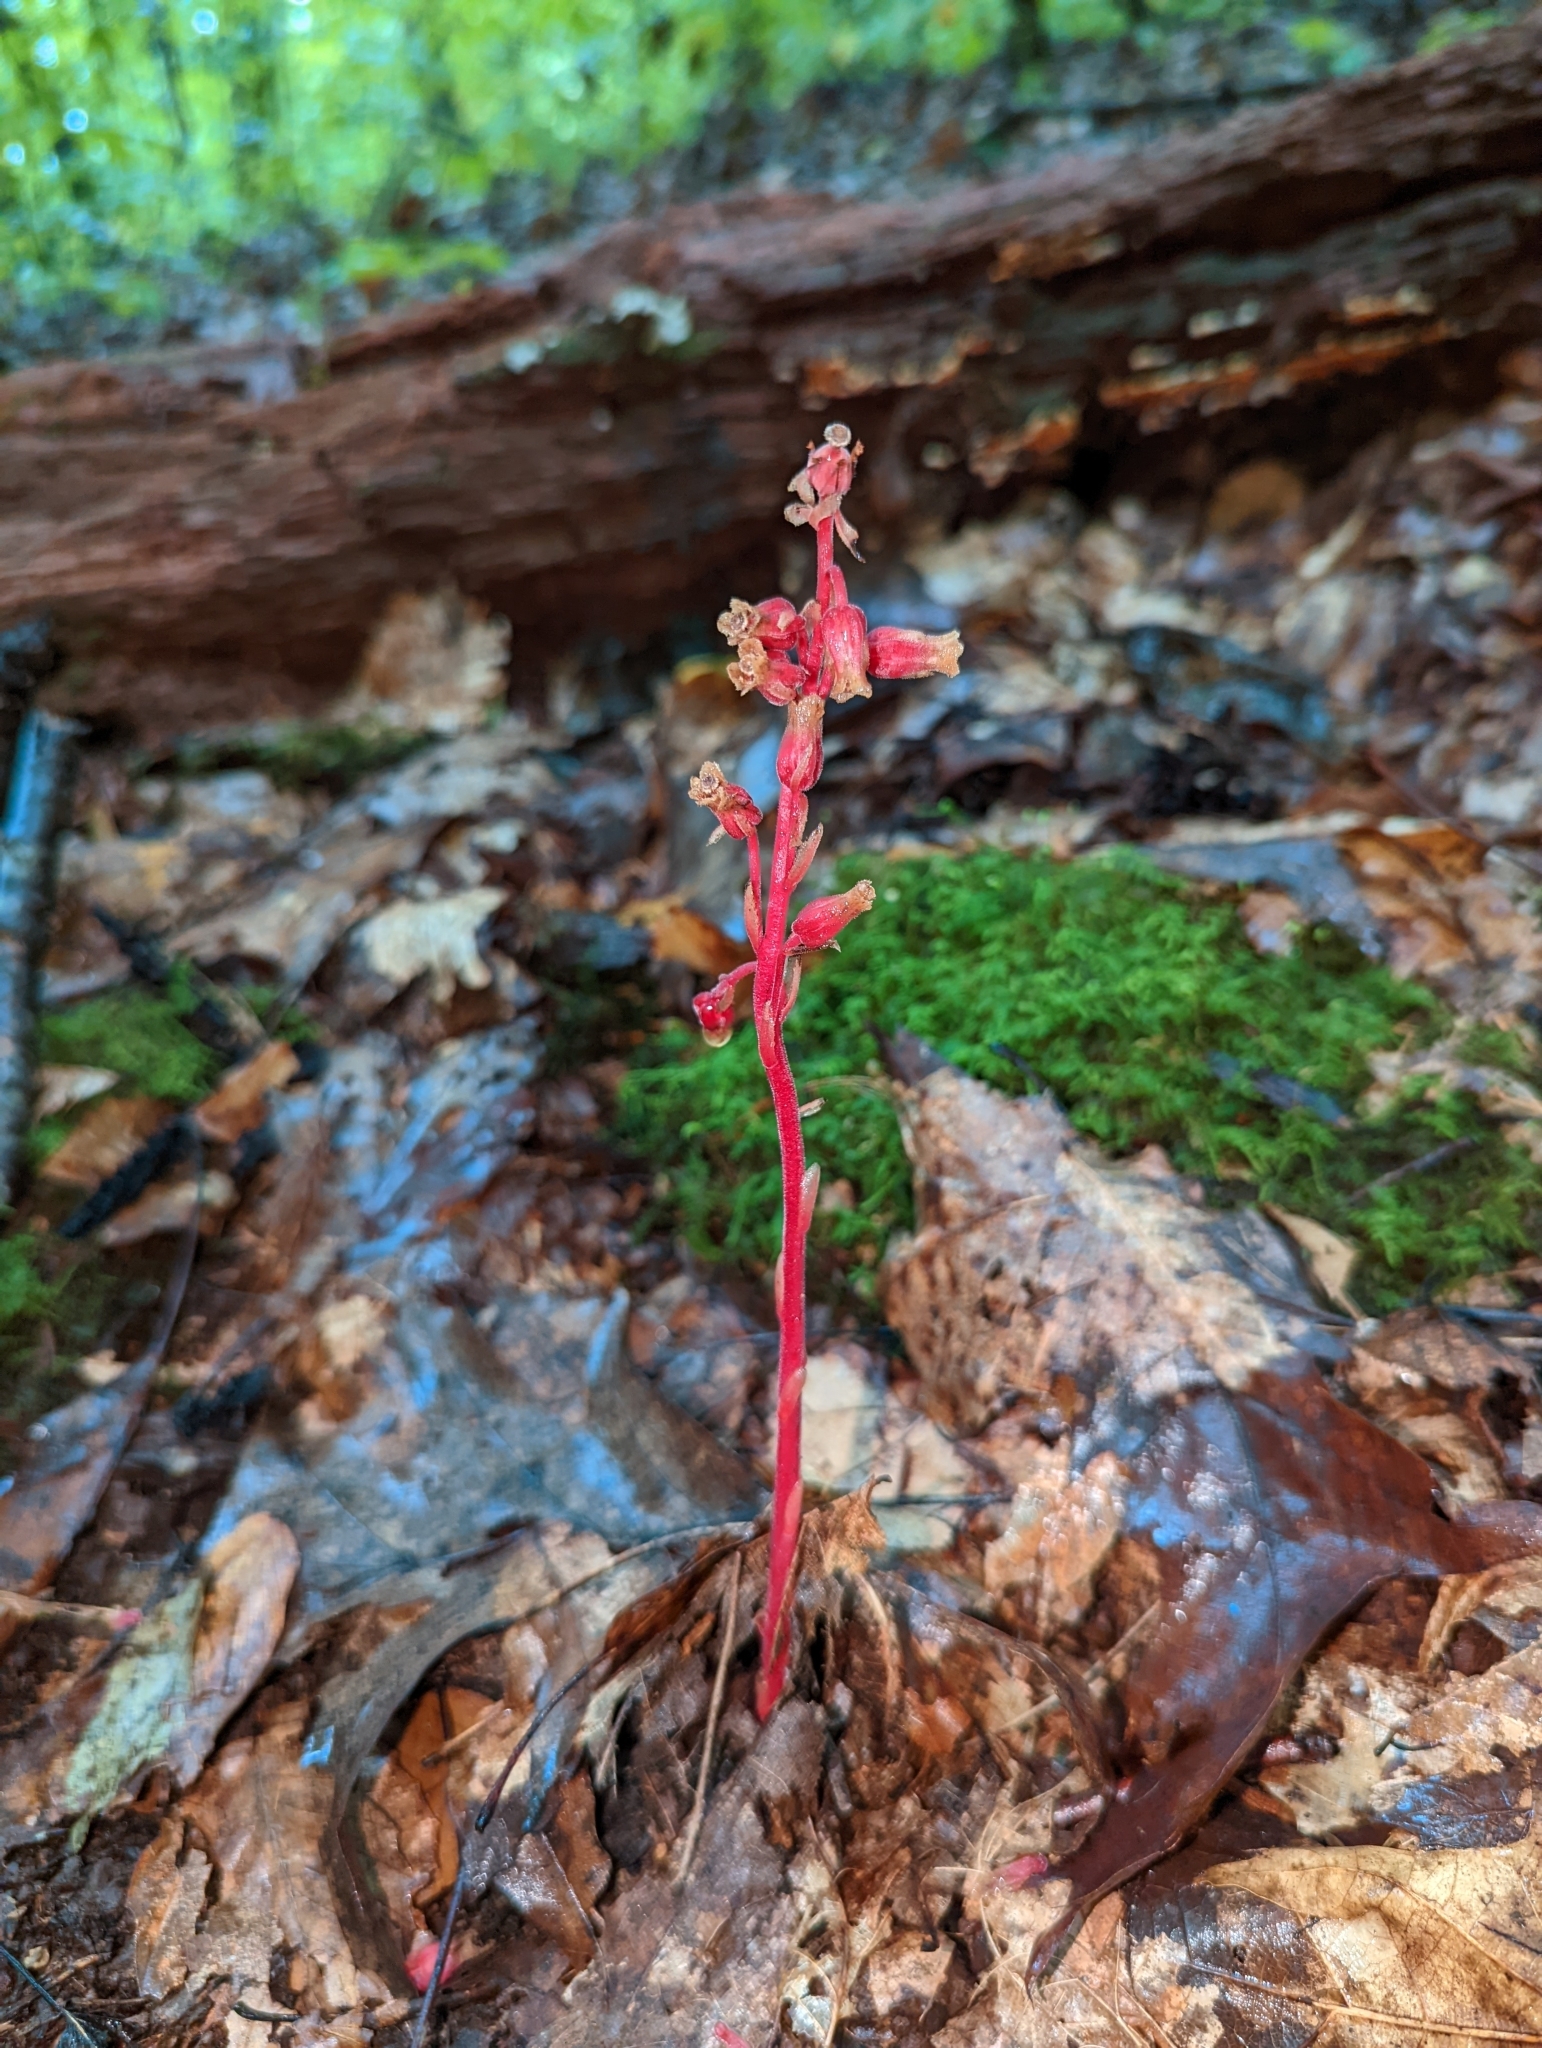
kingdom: Plantae
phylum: Tracheophyta
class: Magnoliopsida
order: Ericales
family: Ericaceae
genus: Hypopitys
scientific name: Hypopitys monotropa
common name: Yellow bird's-nest
